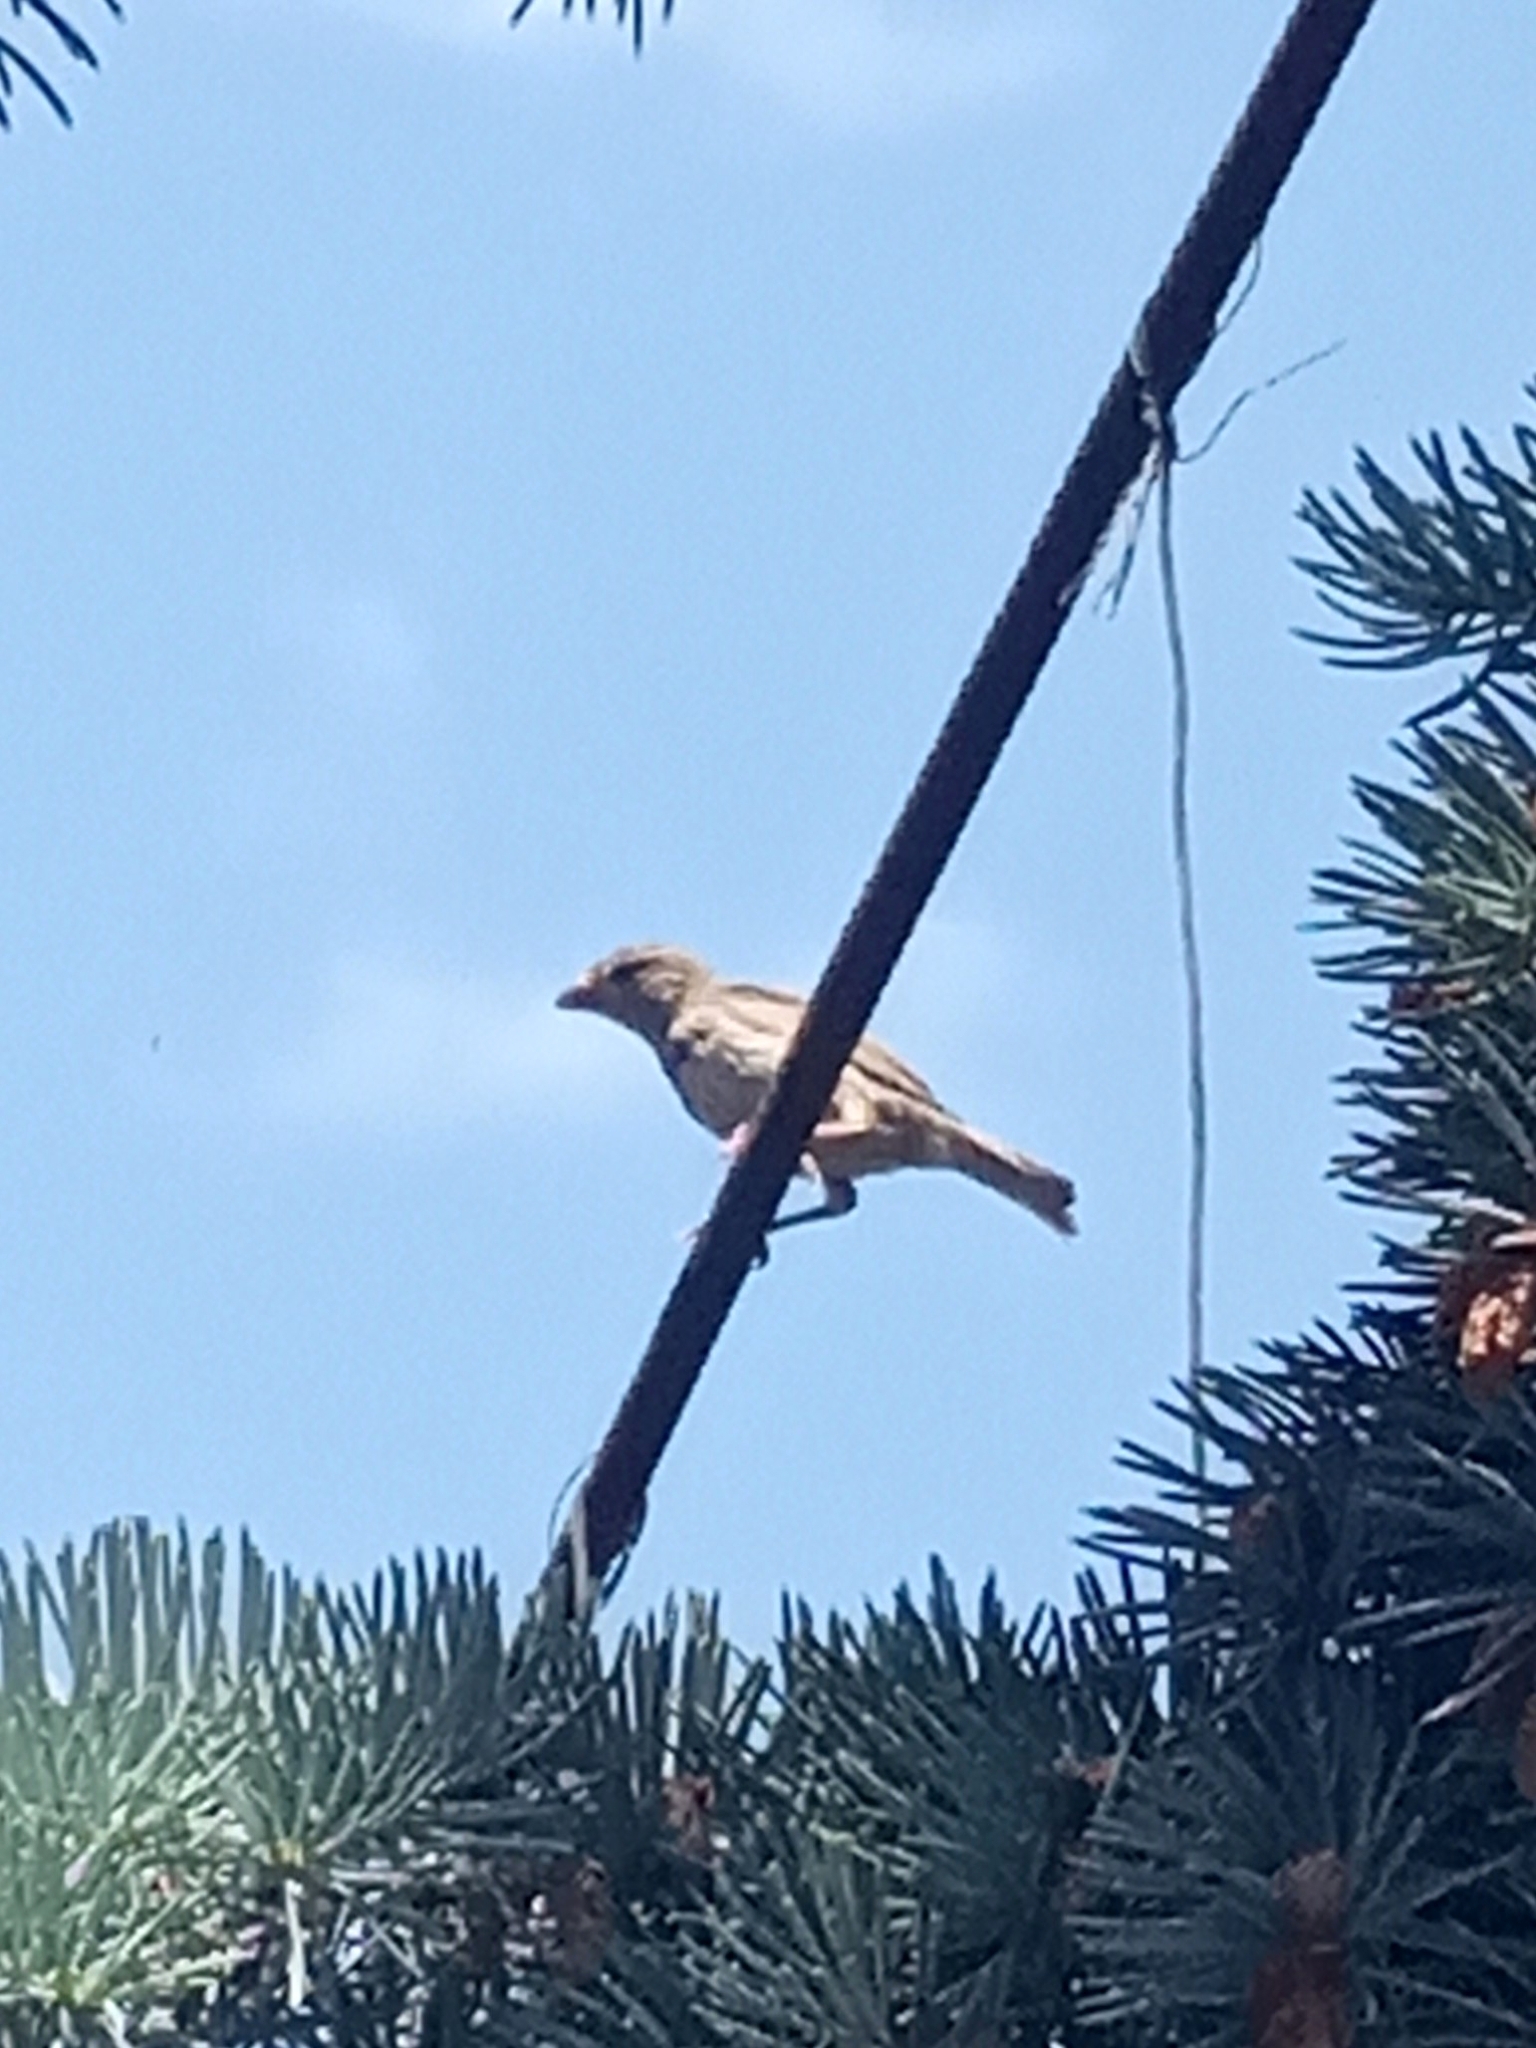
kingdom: Animalia
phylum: Chordata
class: Aves
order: Passeriformes
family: Passeridae
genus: Passer
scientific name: Passer domesticus
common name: House sparrow
